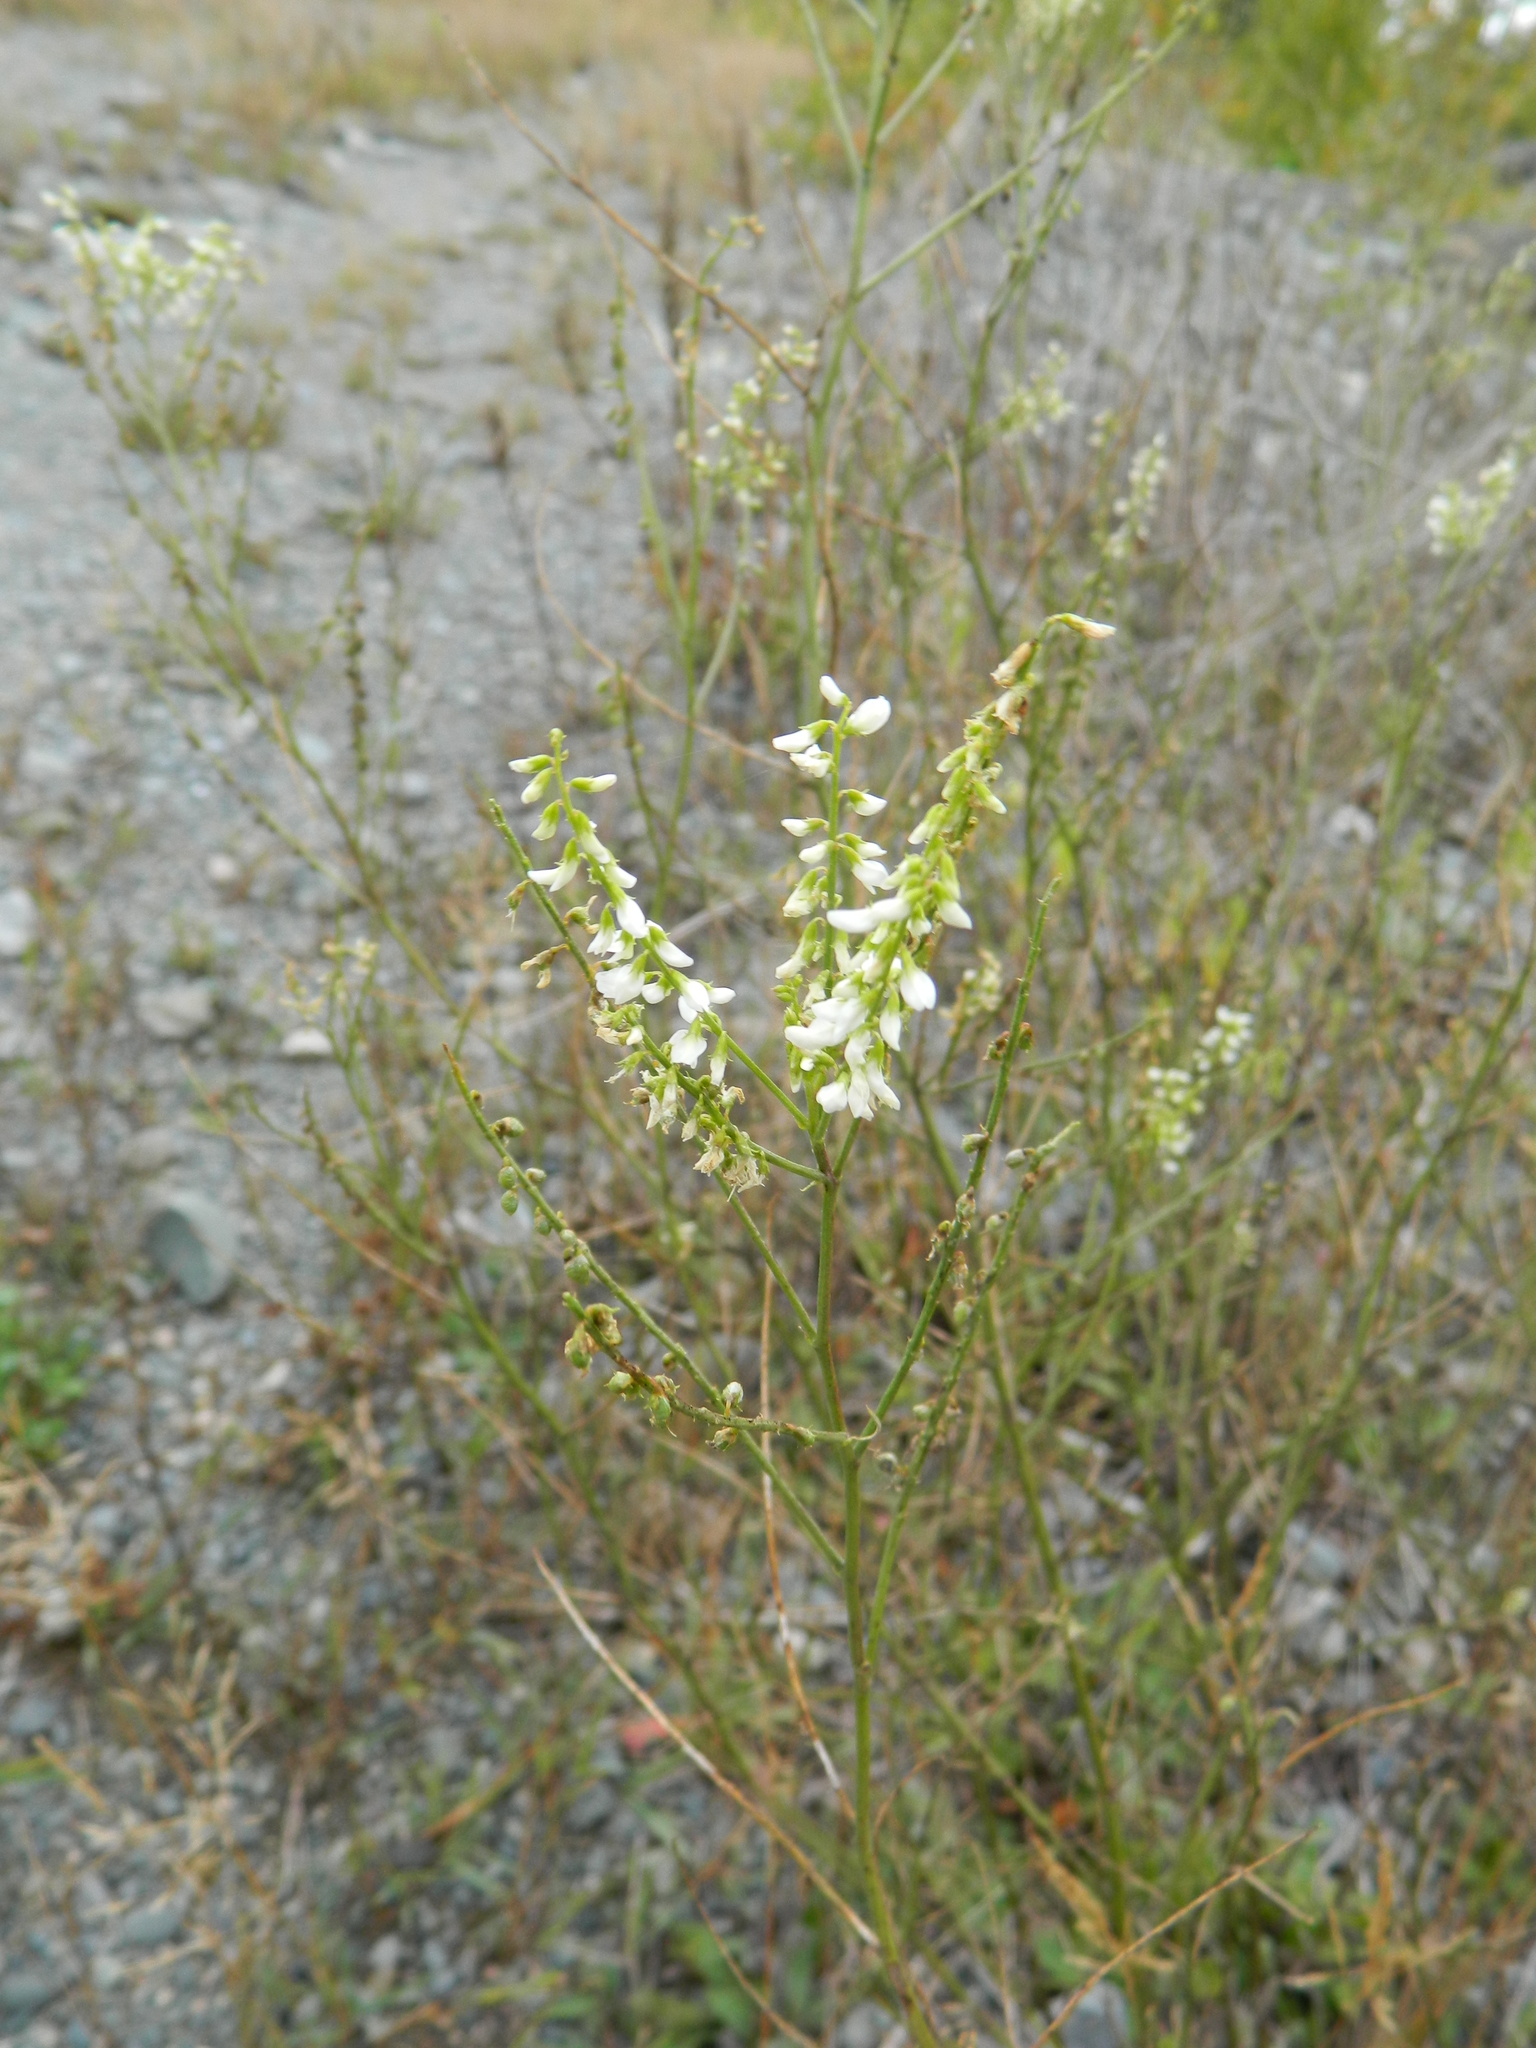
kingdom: Plantae
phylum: Tracheophyta
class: Magnoliopsida
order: Fabales
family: Fabaceae
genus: Melilotus
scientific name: Melilotus albus
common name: White melilot
